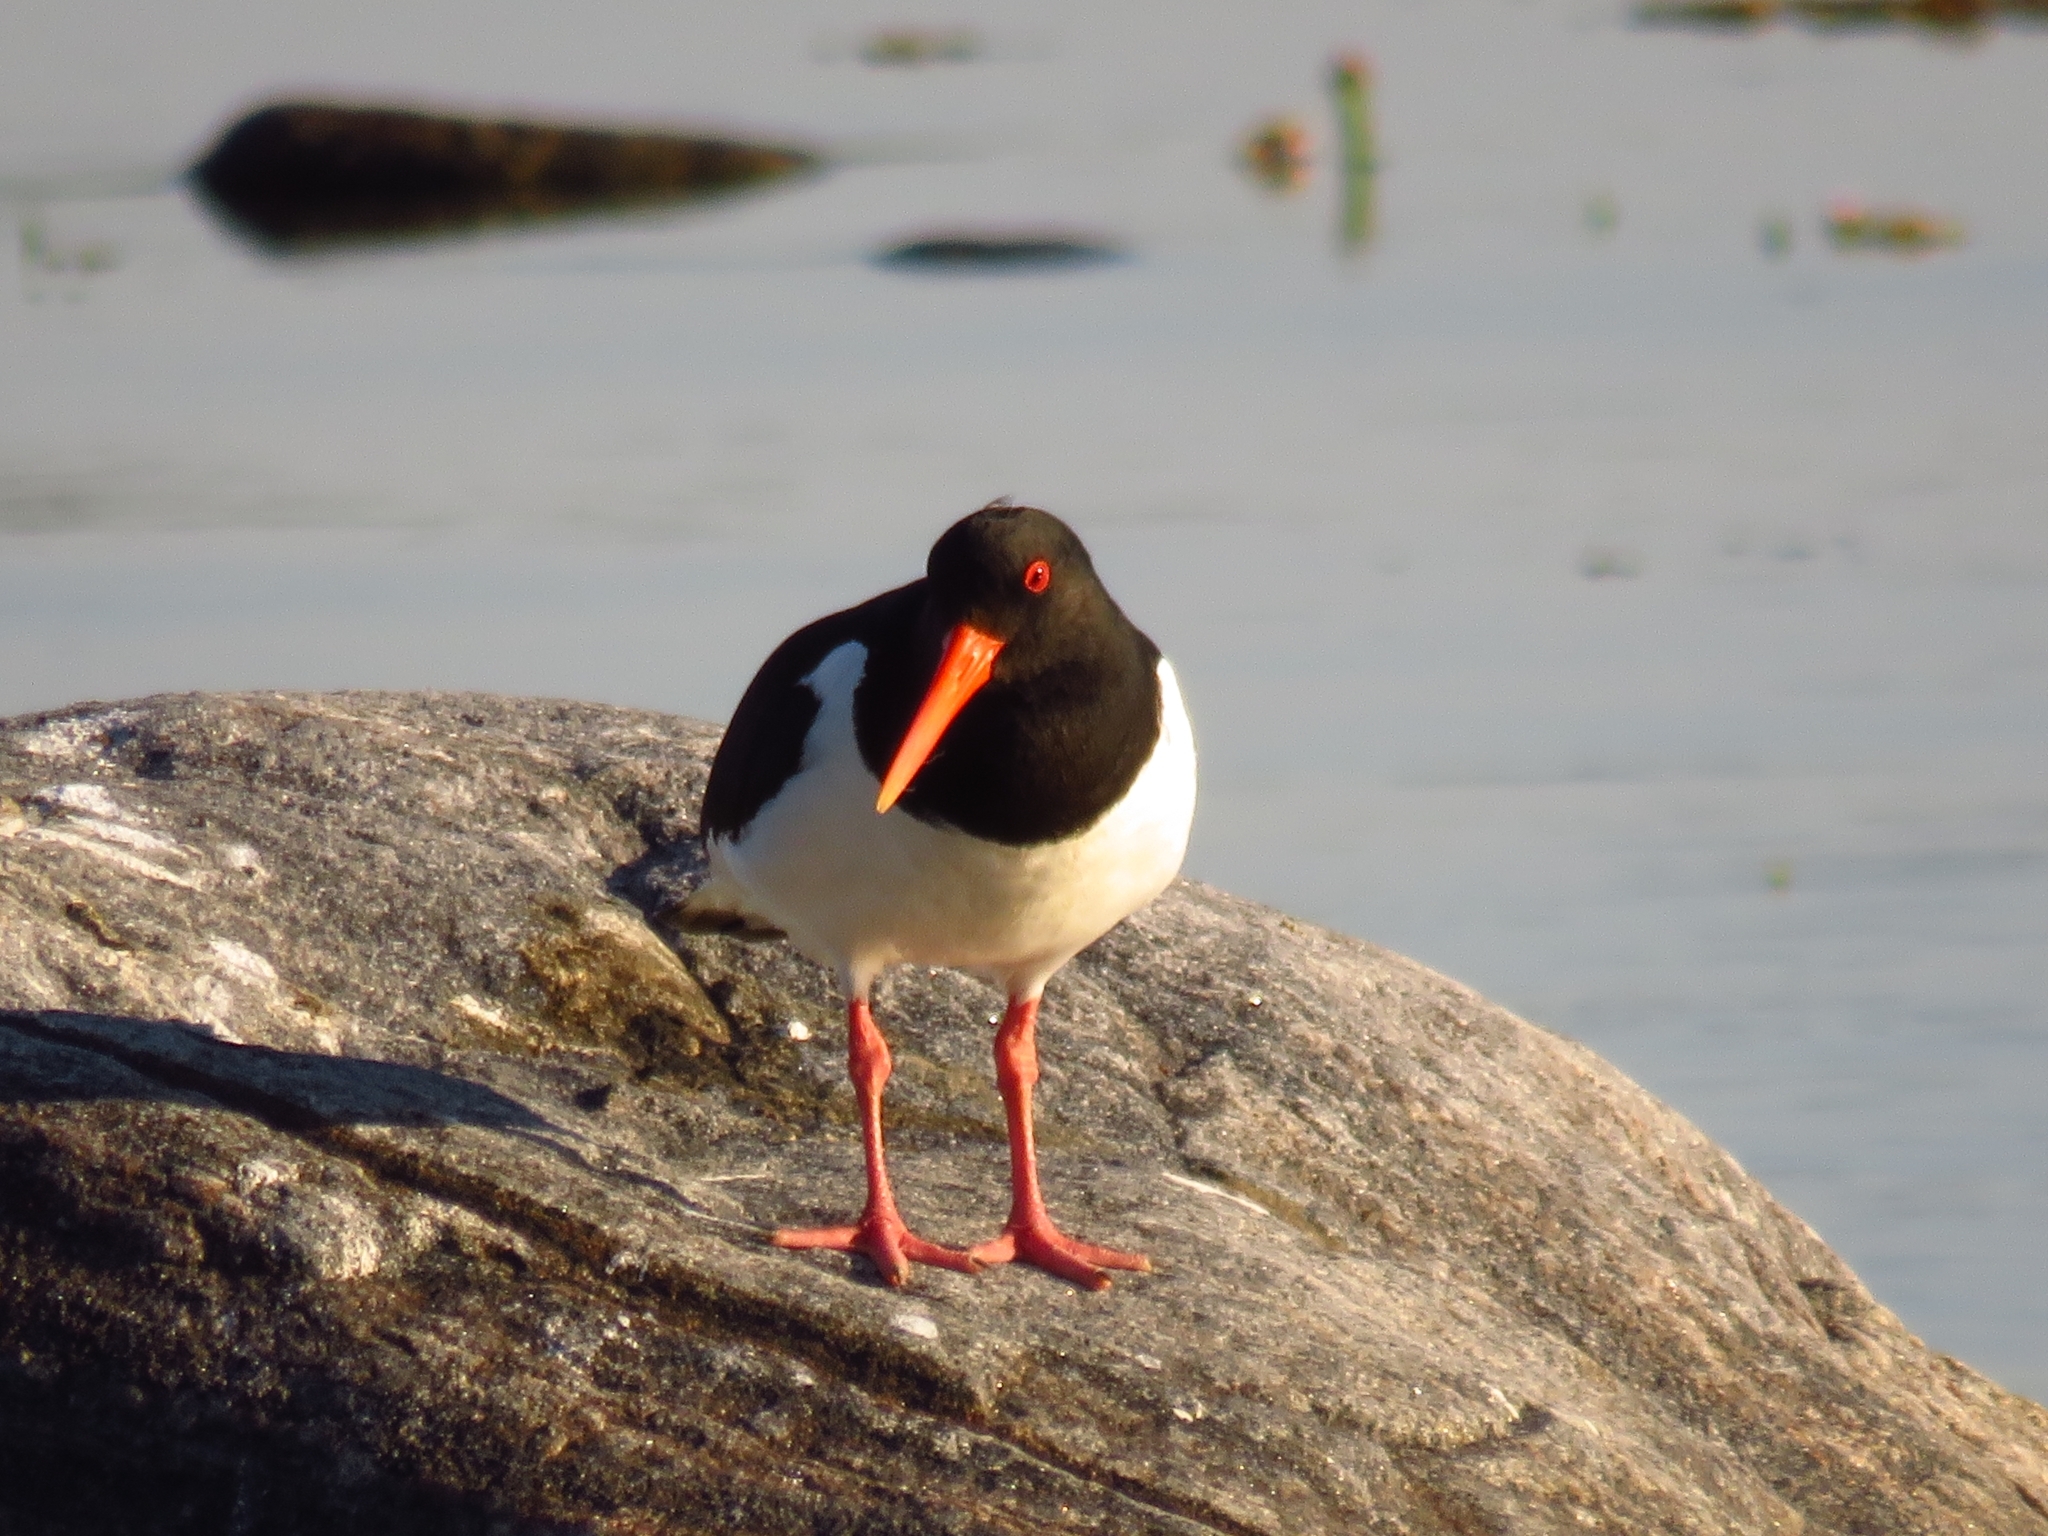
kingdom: Animalia
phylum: Chordata
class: Aves
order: Charadriiformes
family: Haematopodidae
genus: Haematopus
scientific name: Haematopus ostralegus
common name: Eurasian oystercatcher
